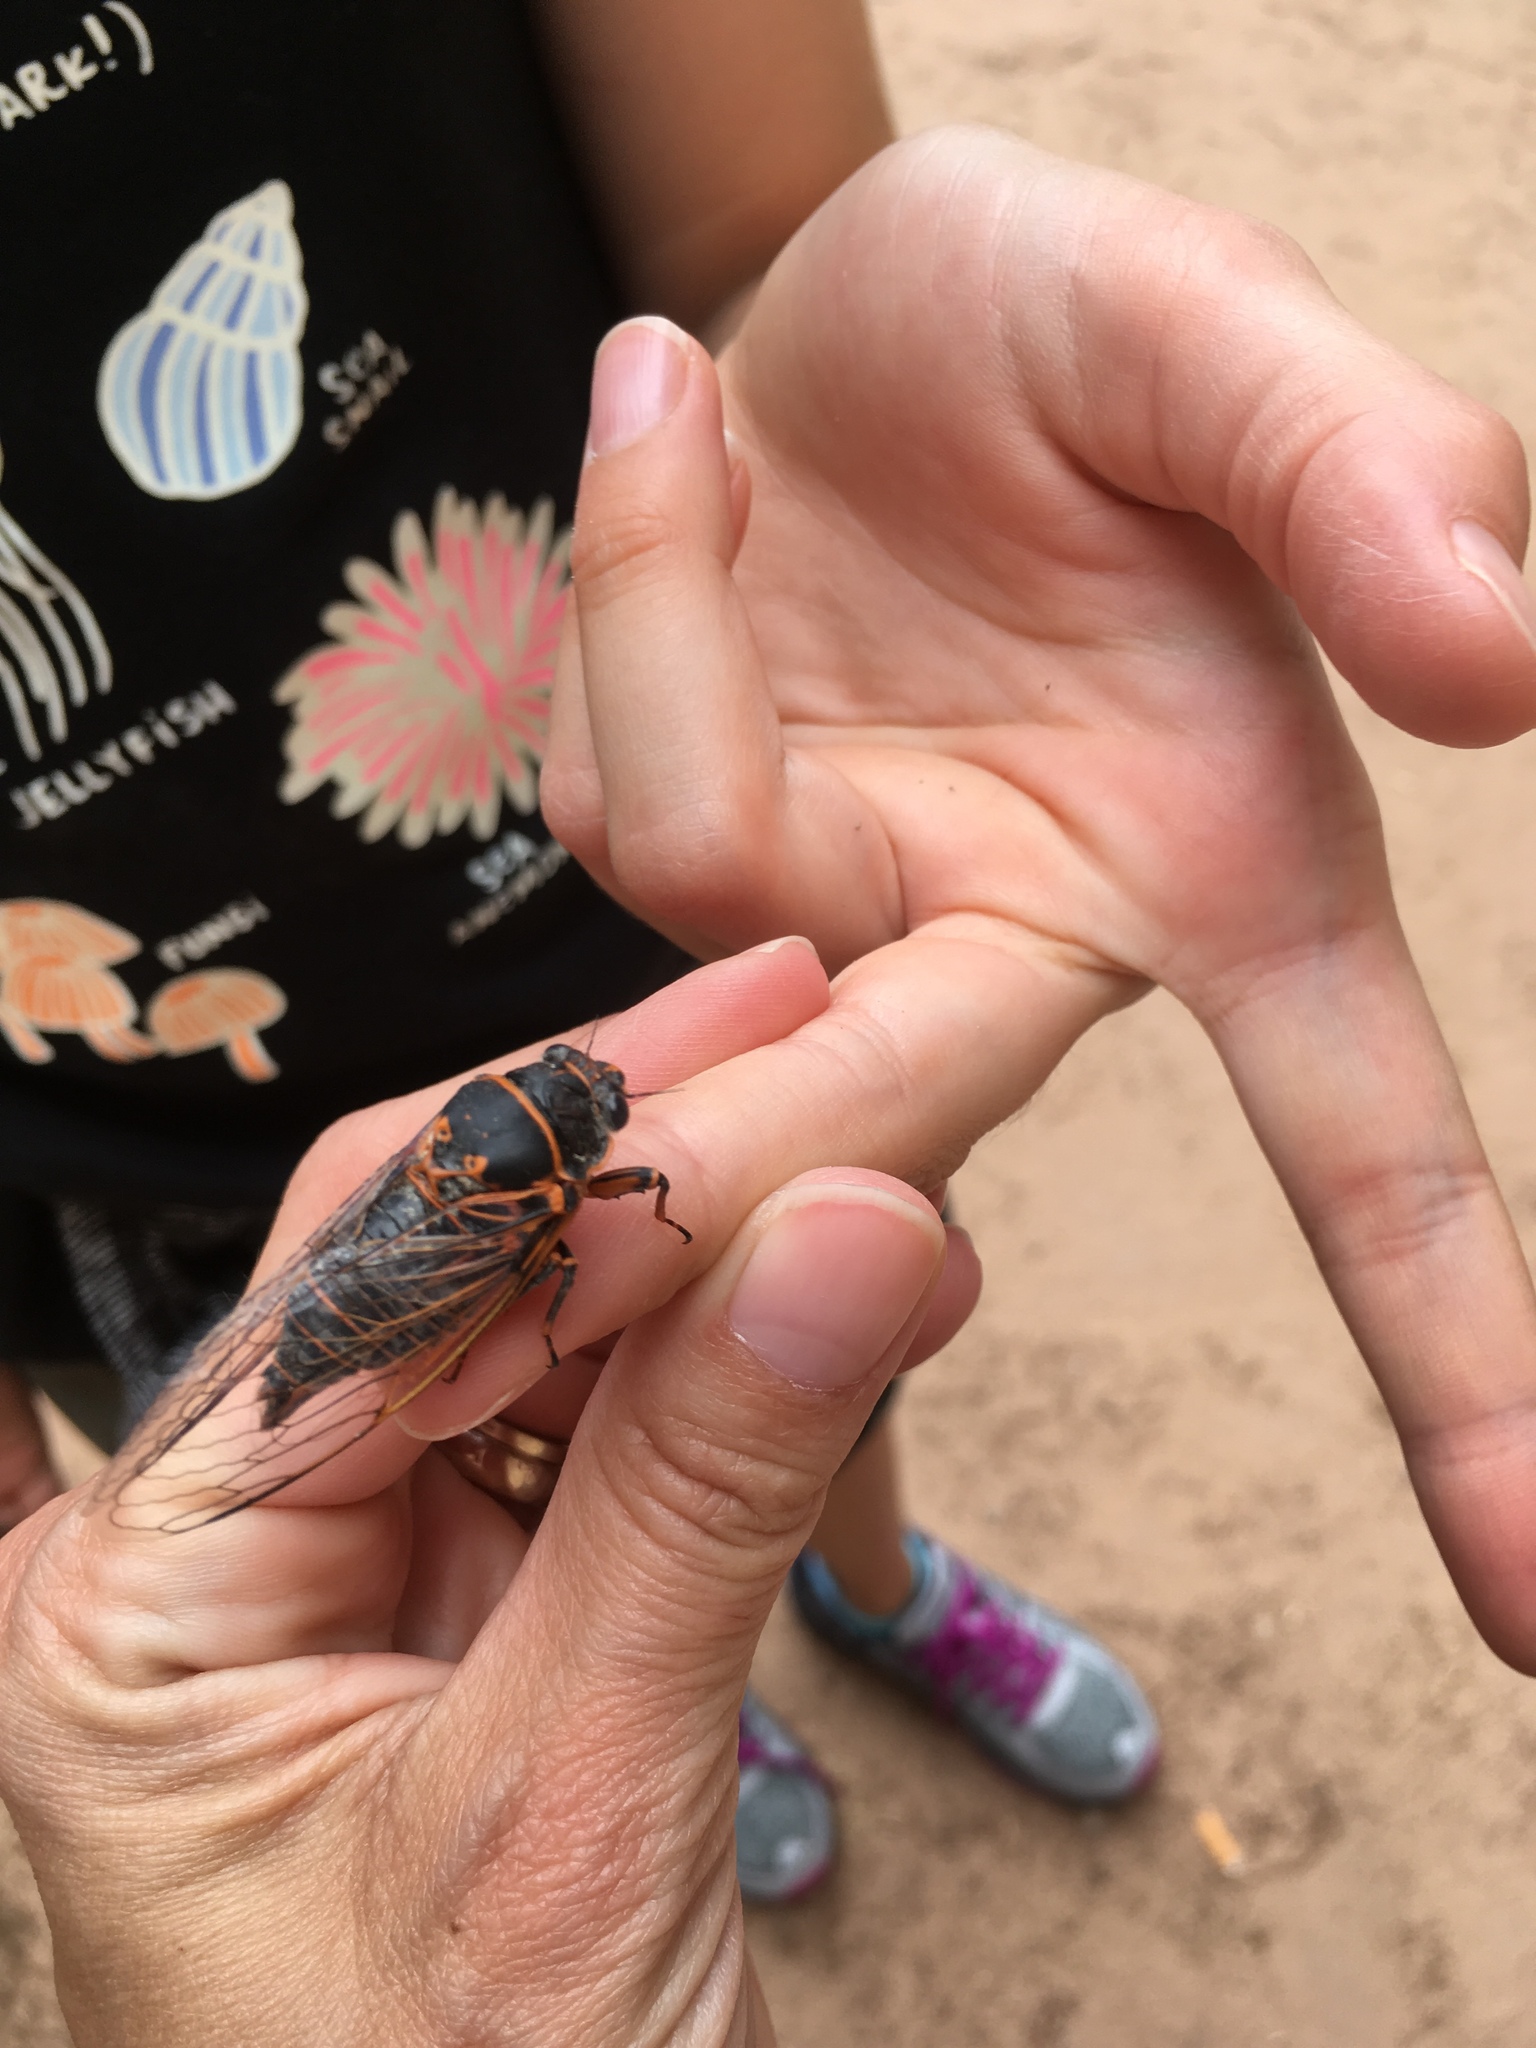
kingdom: Animalia
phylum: Arthropoda
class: Insecta
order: Hemiptera
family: Cicadidae
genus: Okanagana
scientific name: Okanagana bella
